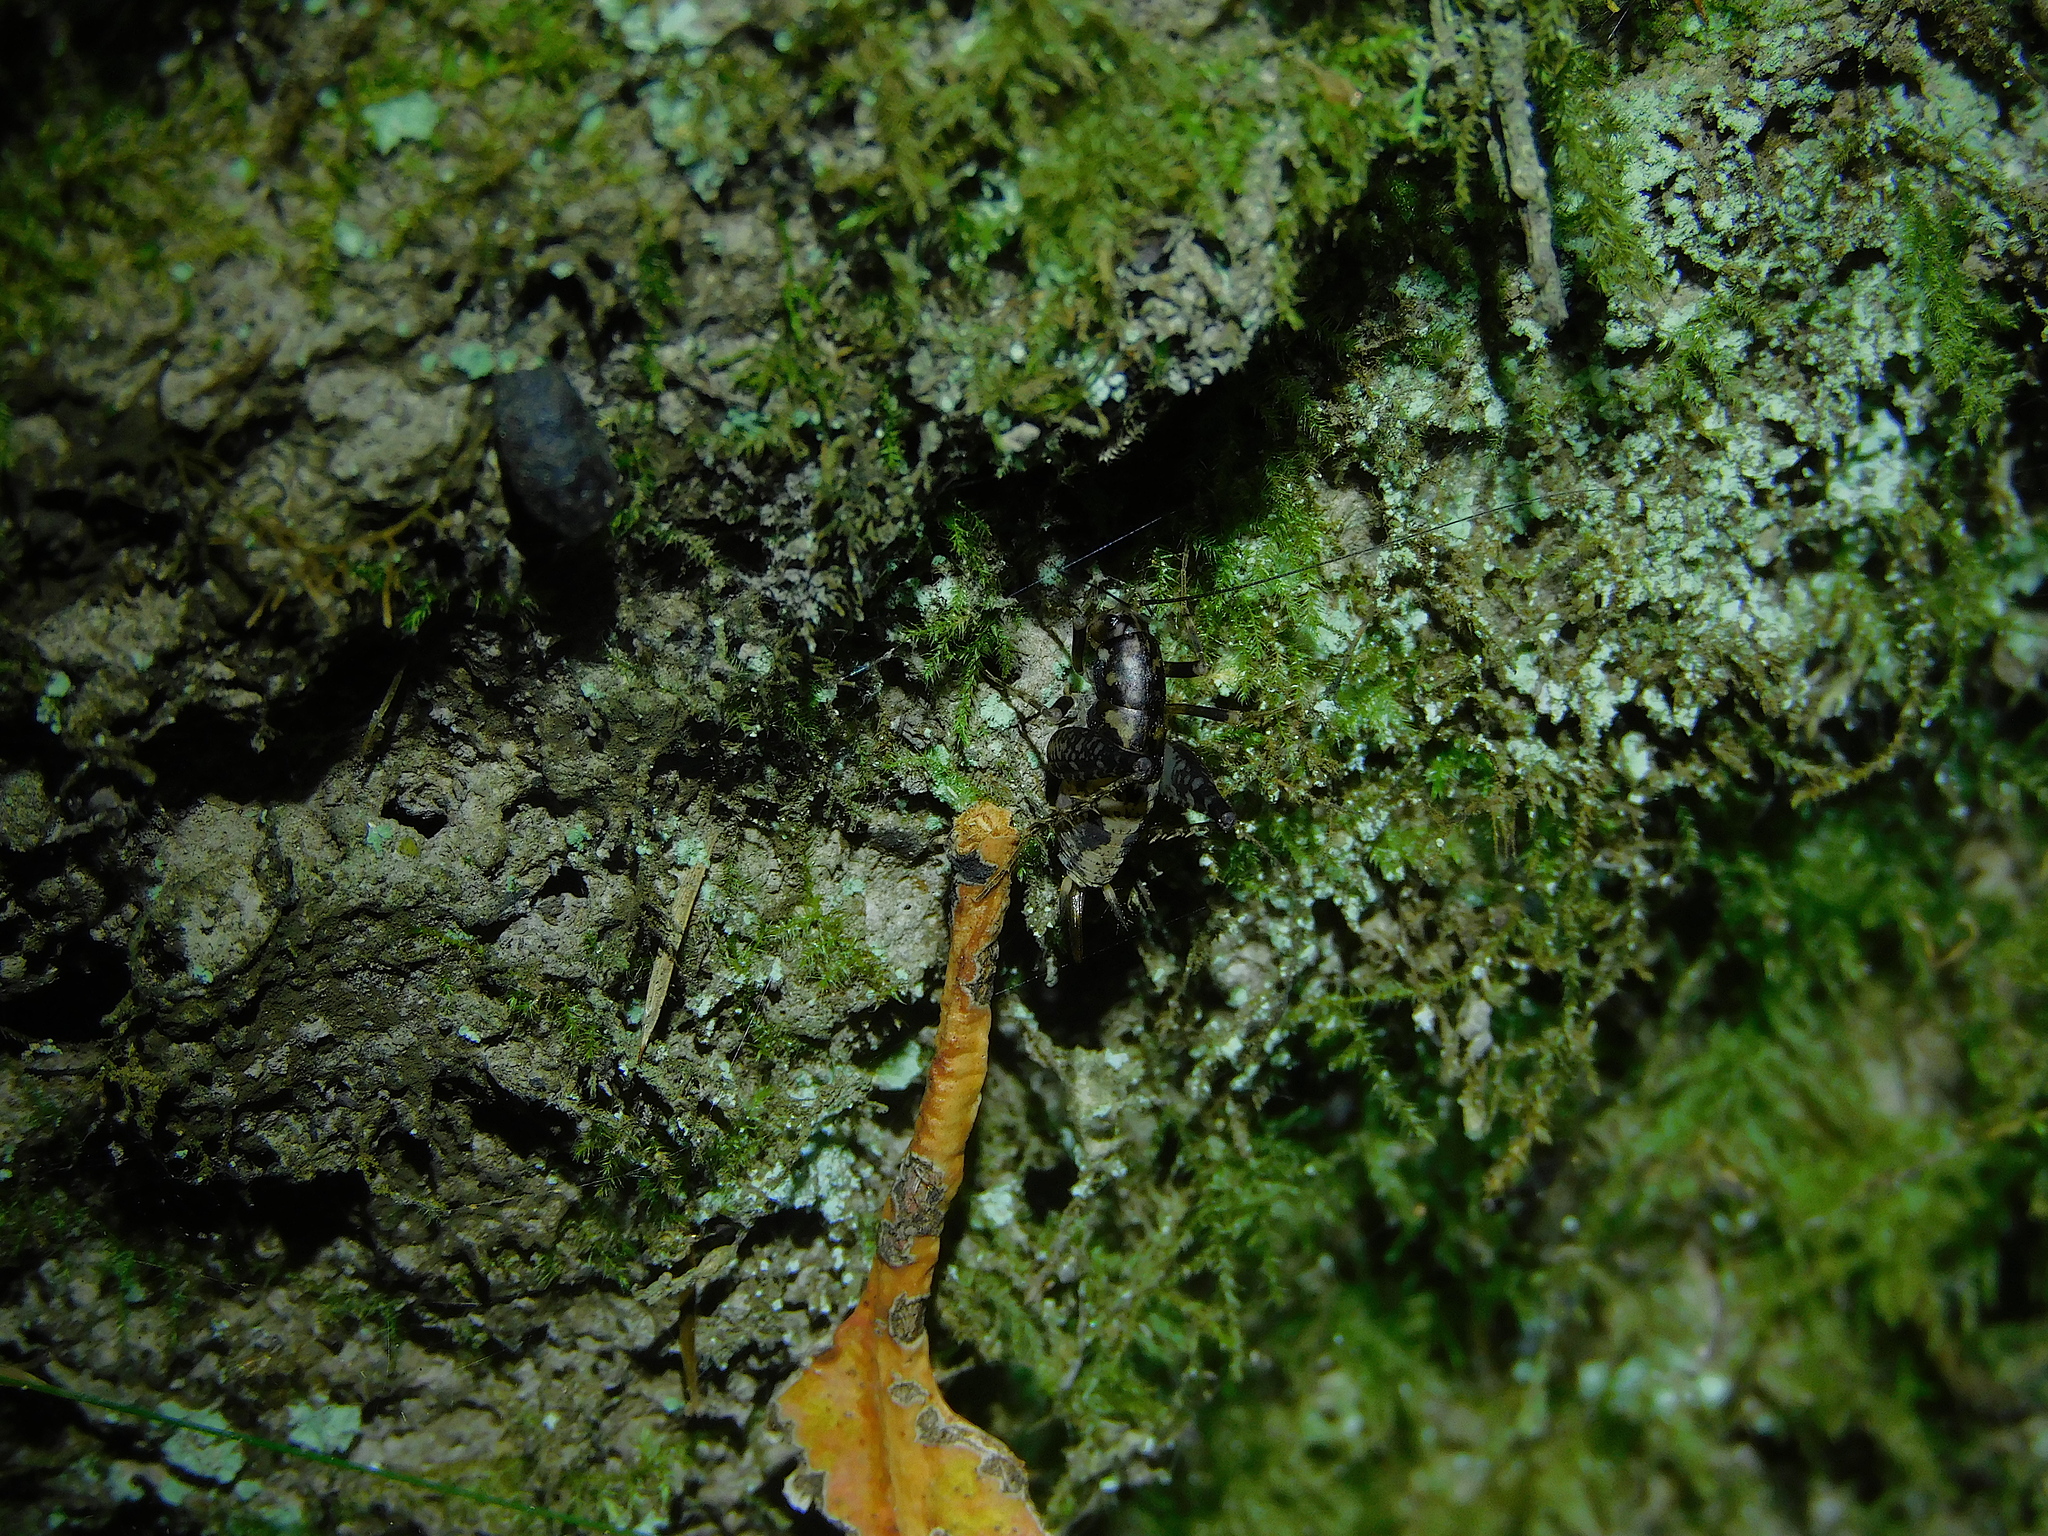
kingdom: Animalia
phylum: Arthropoda
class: Insecta
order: Orthoptera
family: Rhaphidophoridae
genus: Parvotettix
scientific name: Parvotettix domesticus
